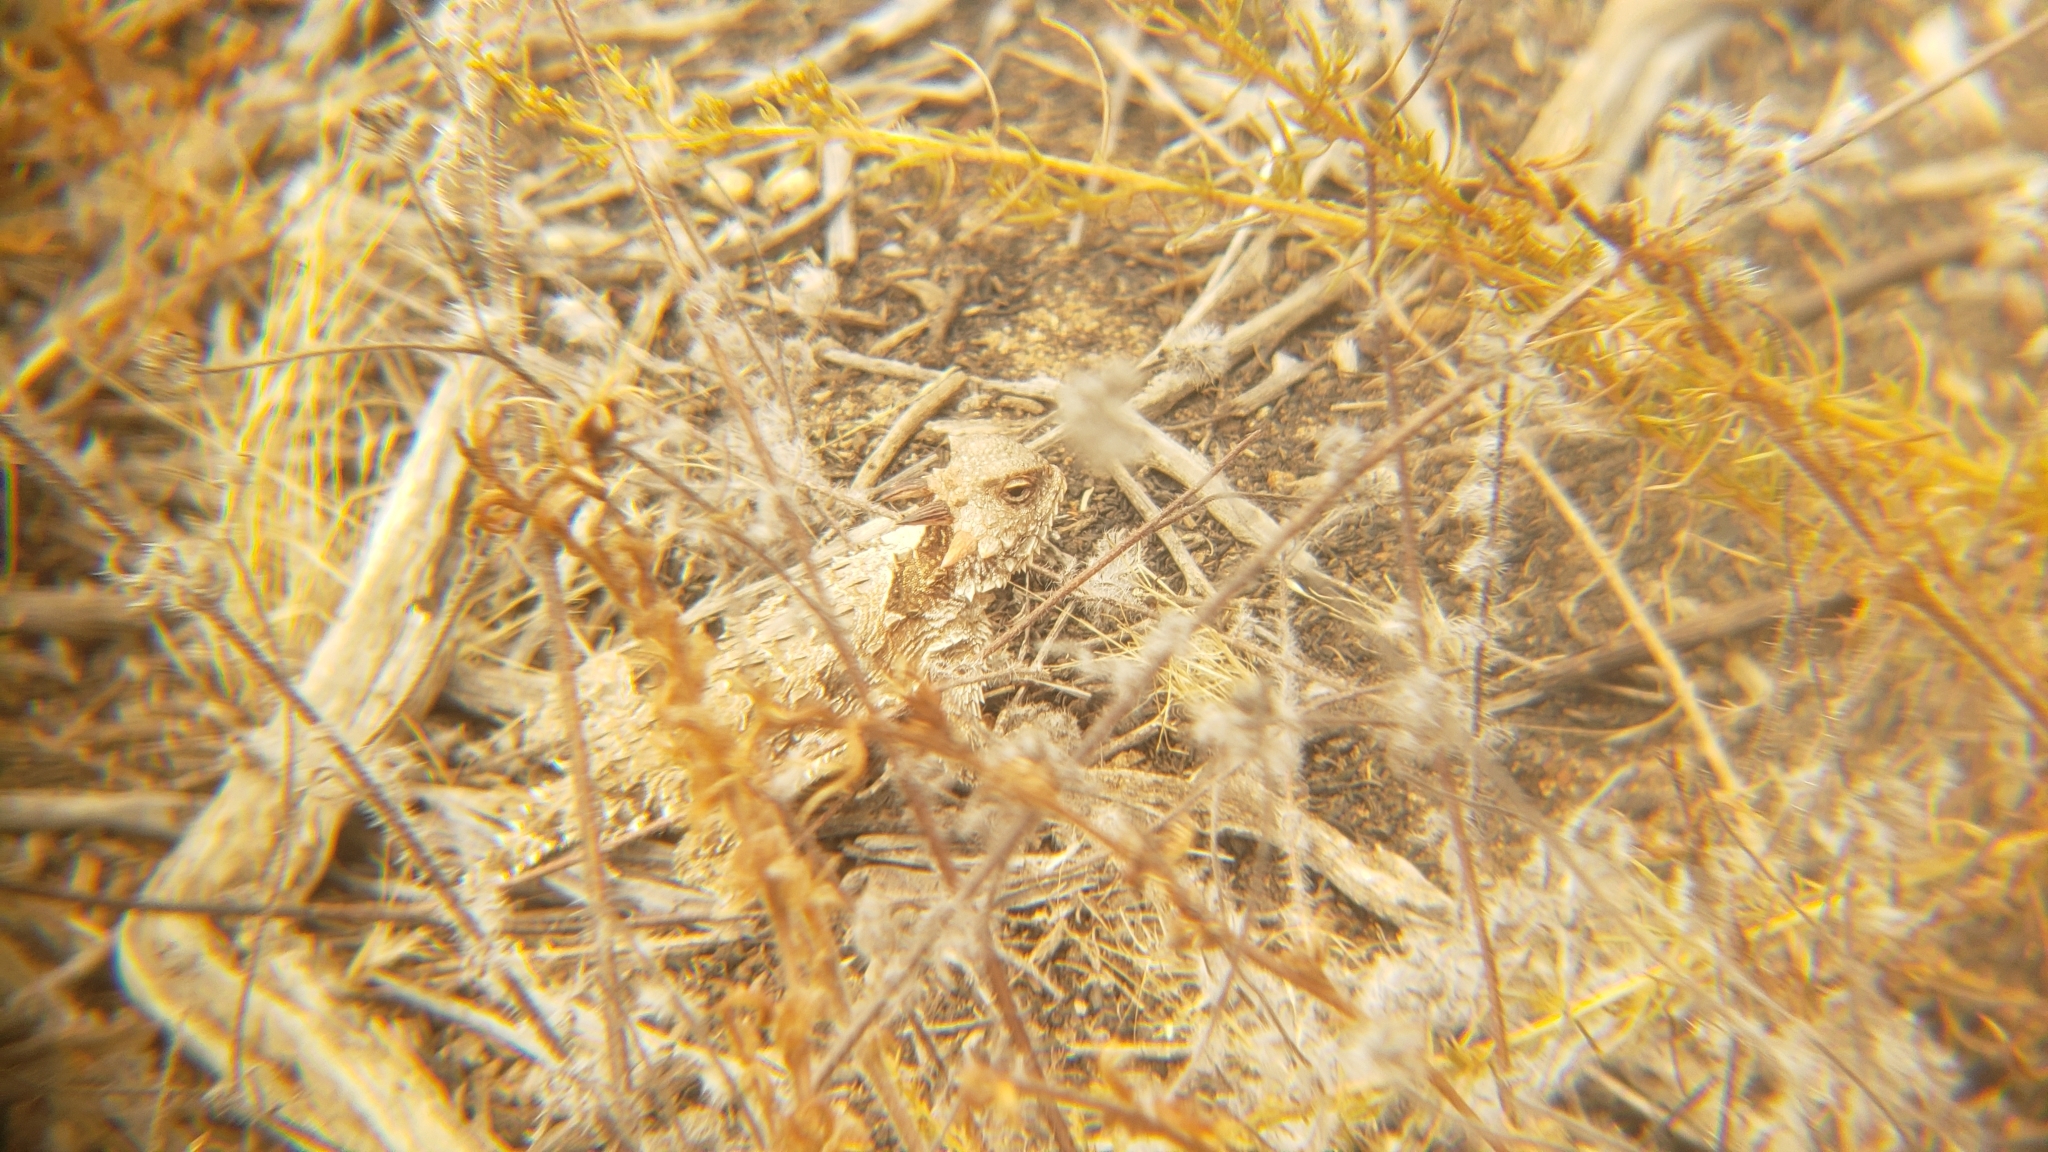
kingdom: Animalia
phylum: Chordata
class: Squamata
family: Phrynosomatidae
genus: Phrynosoma
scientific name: Phrynosoma blainvillii
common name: San diego horned lizard
